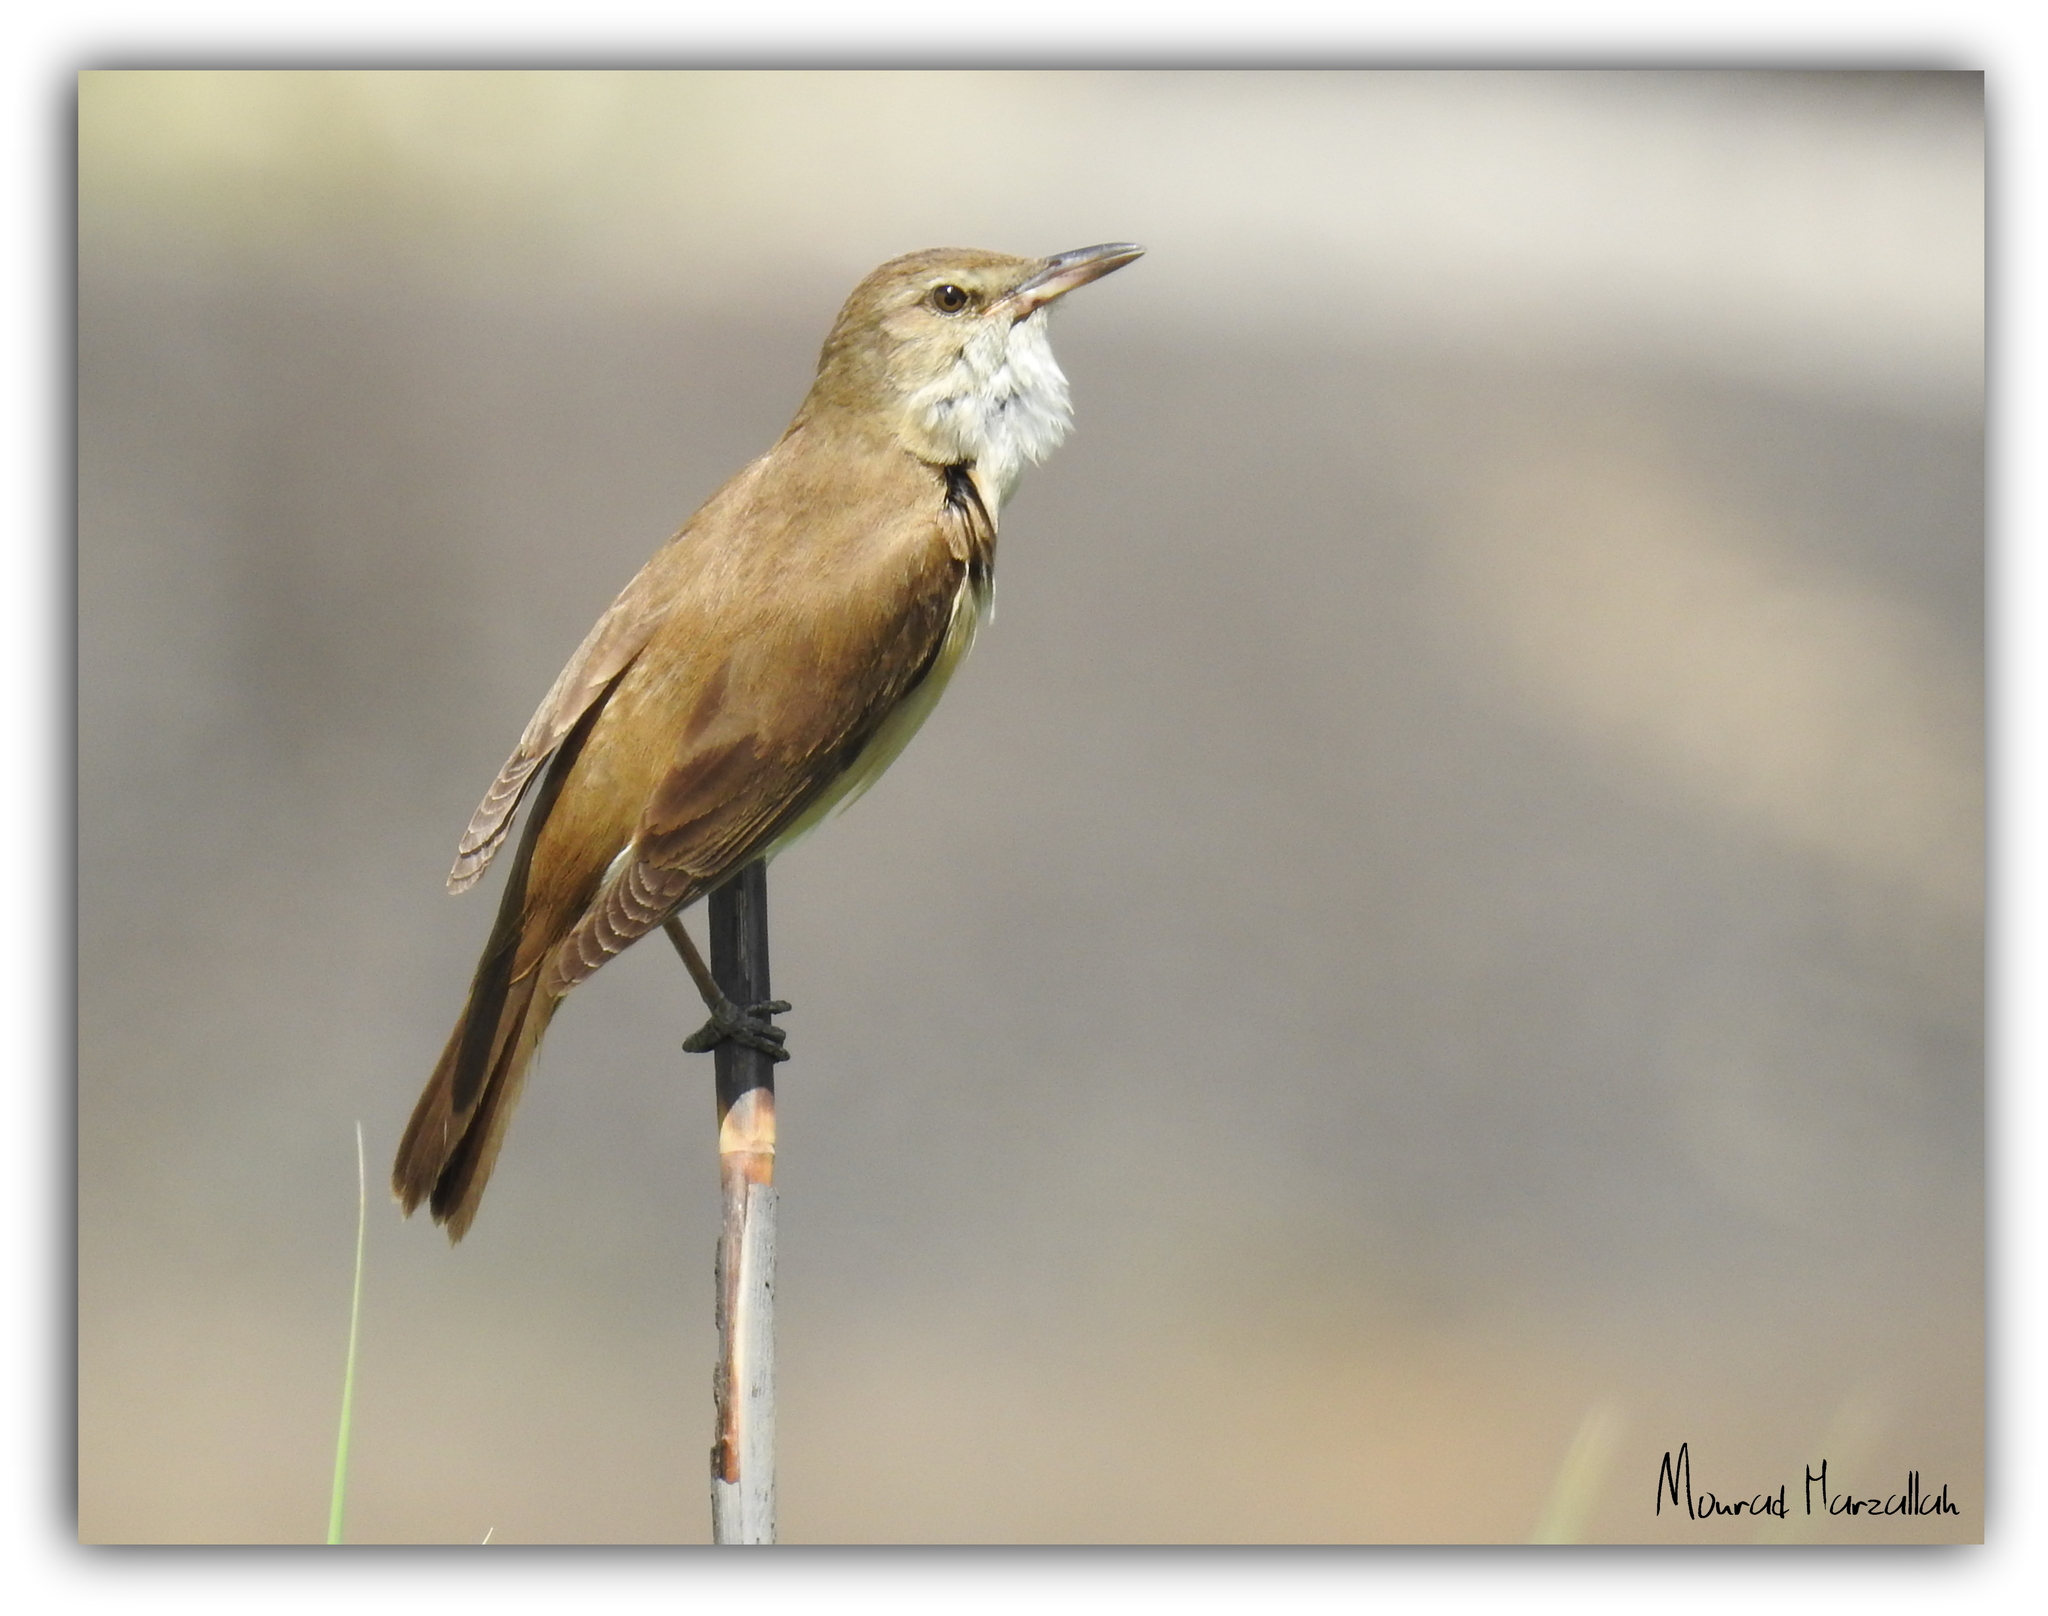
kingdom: Animalia
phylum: Chordata
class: Aves
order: Passeriformes
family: Acrocephalidae
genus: Acrocephalus
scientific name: Acrocephalus arundinaceus
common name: Great reed warbler
